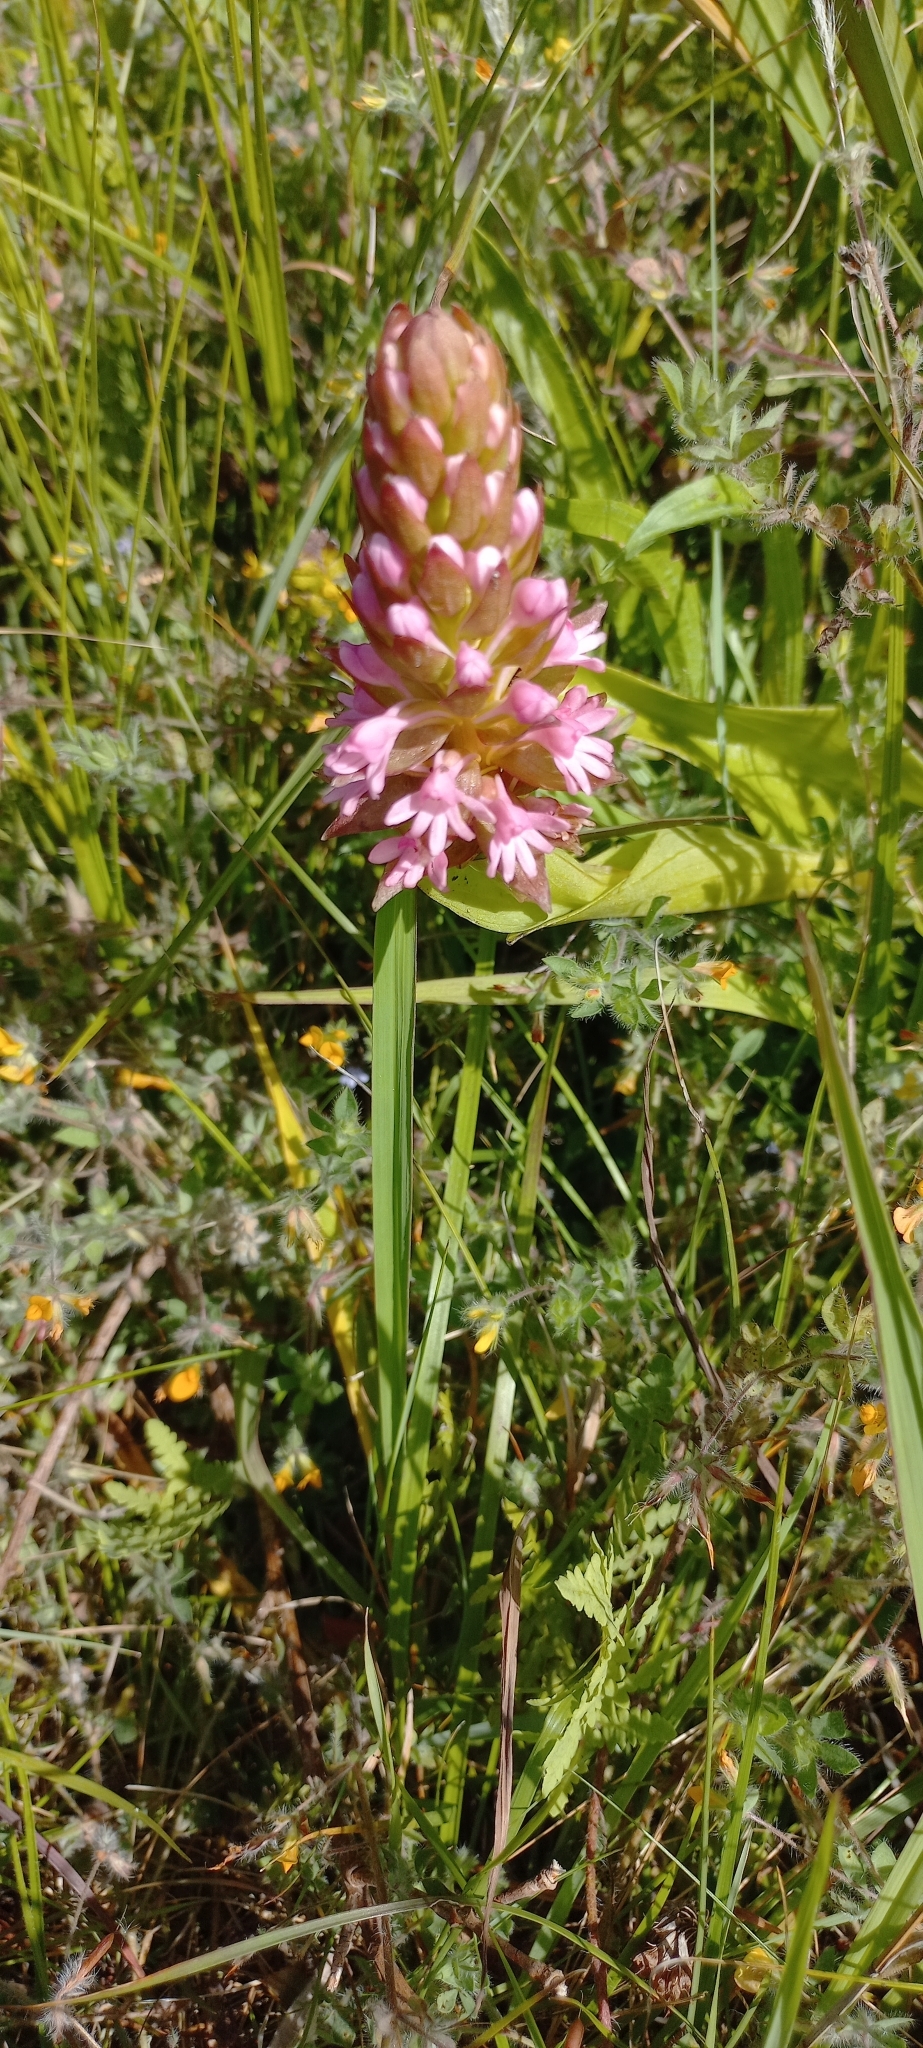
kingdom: Plantae
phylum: Tracheophyta
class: Liliopsida
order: Asparagales
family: Orchidaceae
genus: Satyrium
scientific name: Satyrium hallackii
